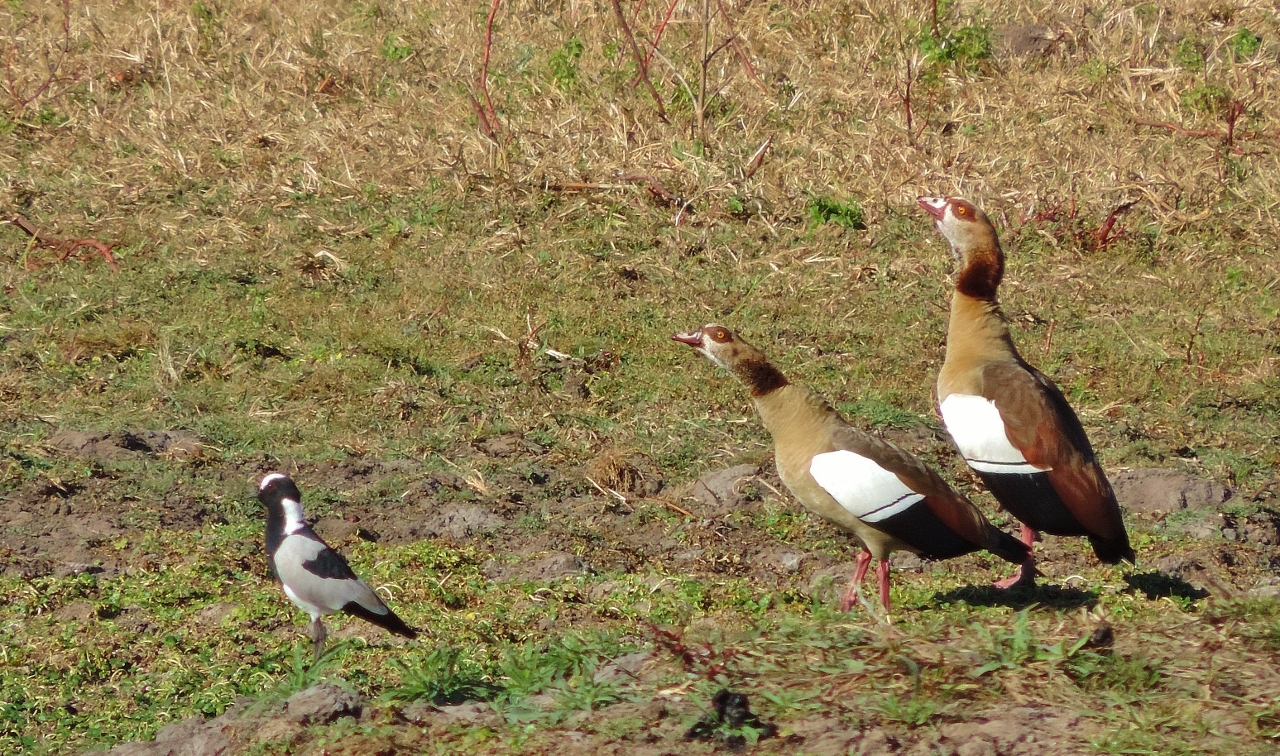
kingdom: Animalia
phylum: Chordata
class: Aves
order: Charadriiformes
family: Charadriidae
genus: Vanellus
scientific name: Vanellus armatus
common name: Blacksmith lapwing
